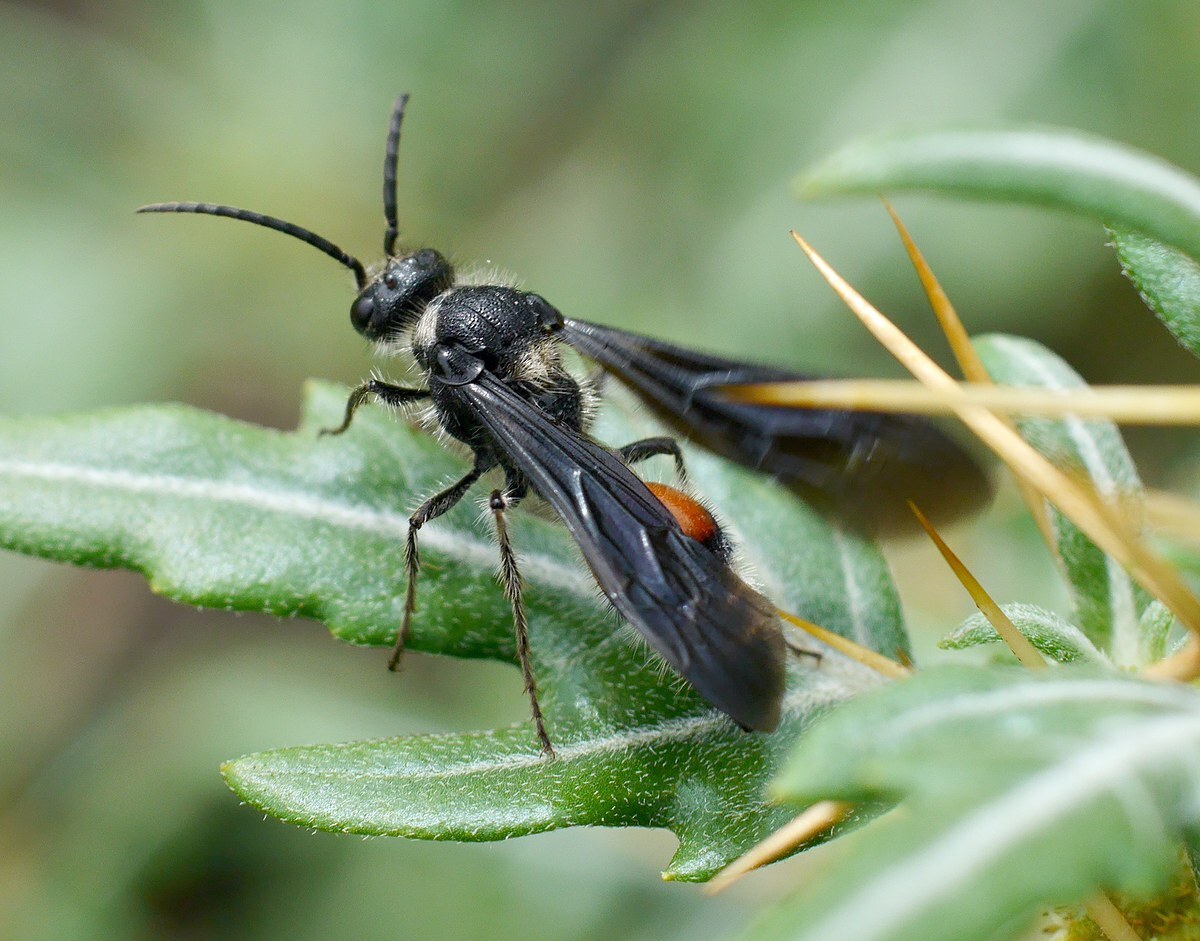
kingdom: Animalia
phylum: Arthropoda
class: Insecta
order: Hymenoptera
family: Mutillidae
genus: Nemka
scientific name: Nemka viduata
